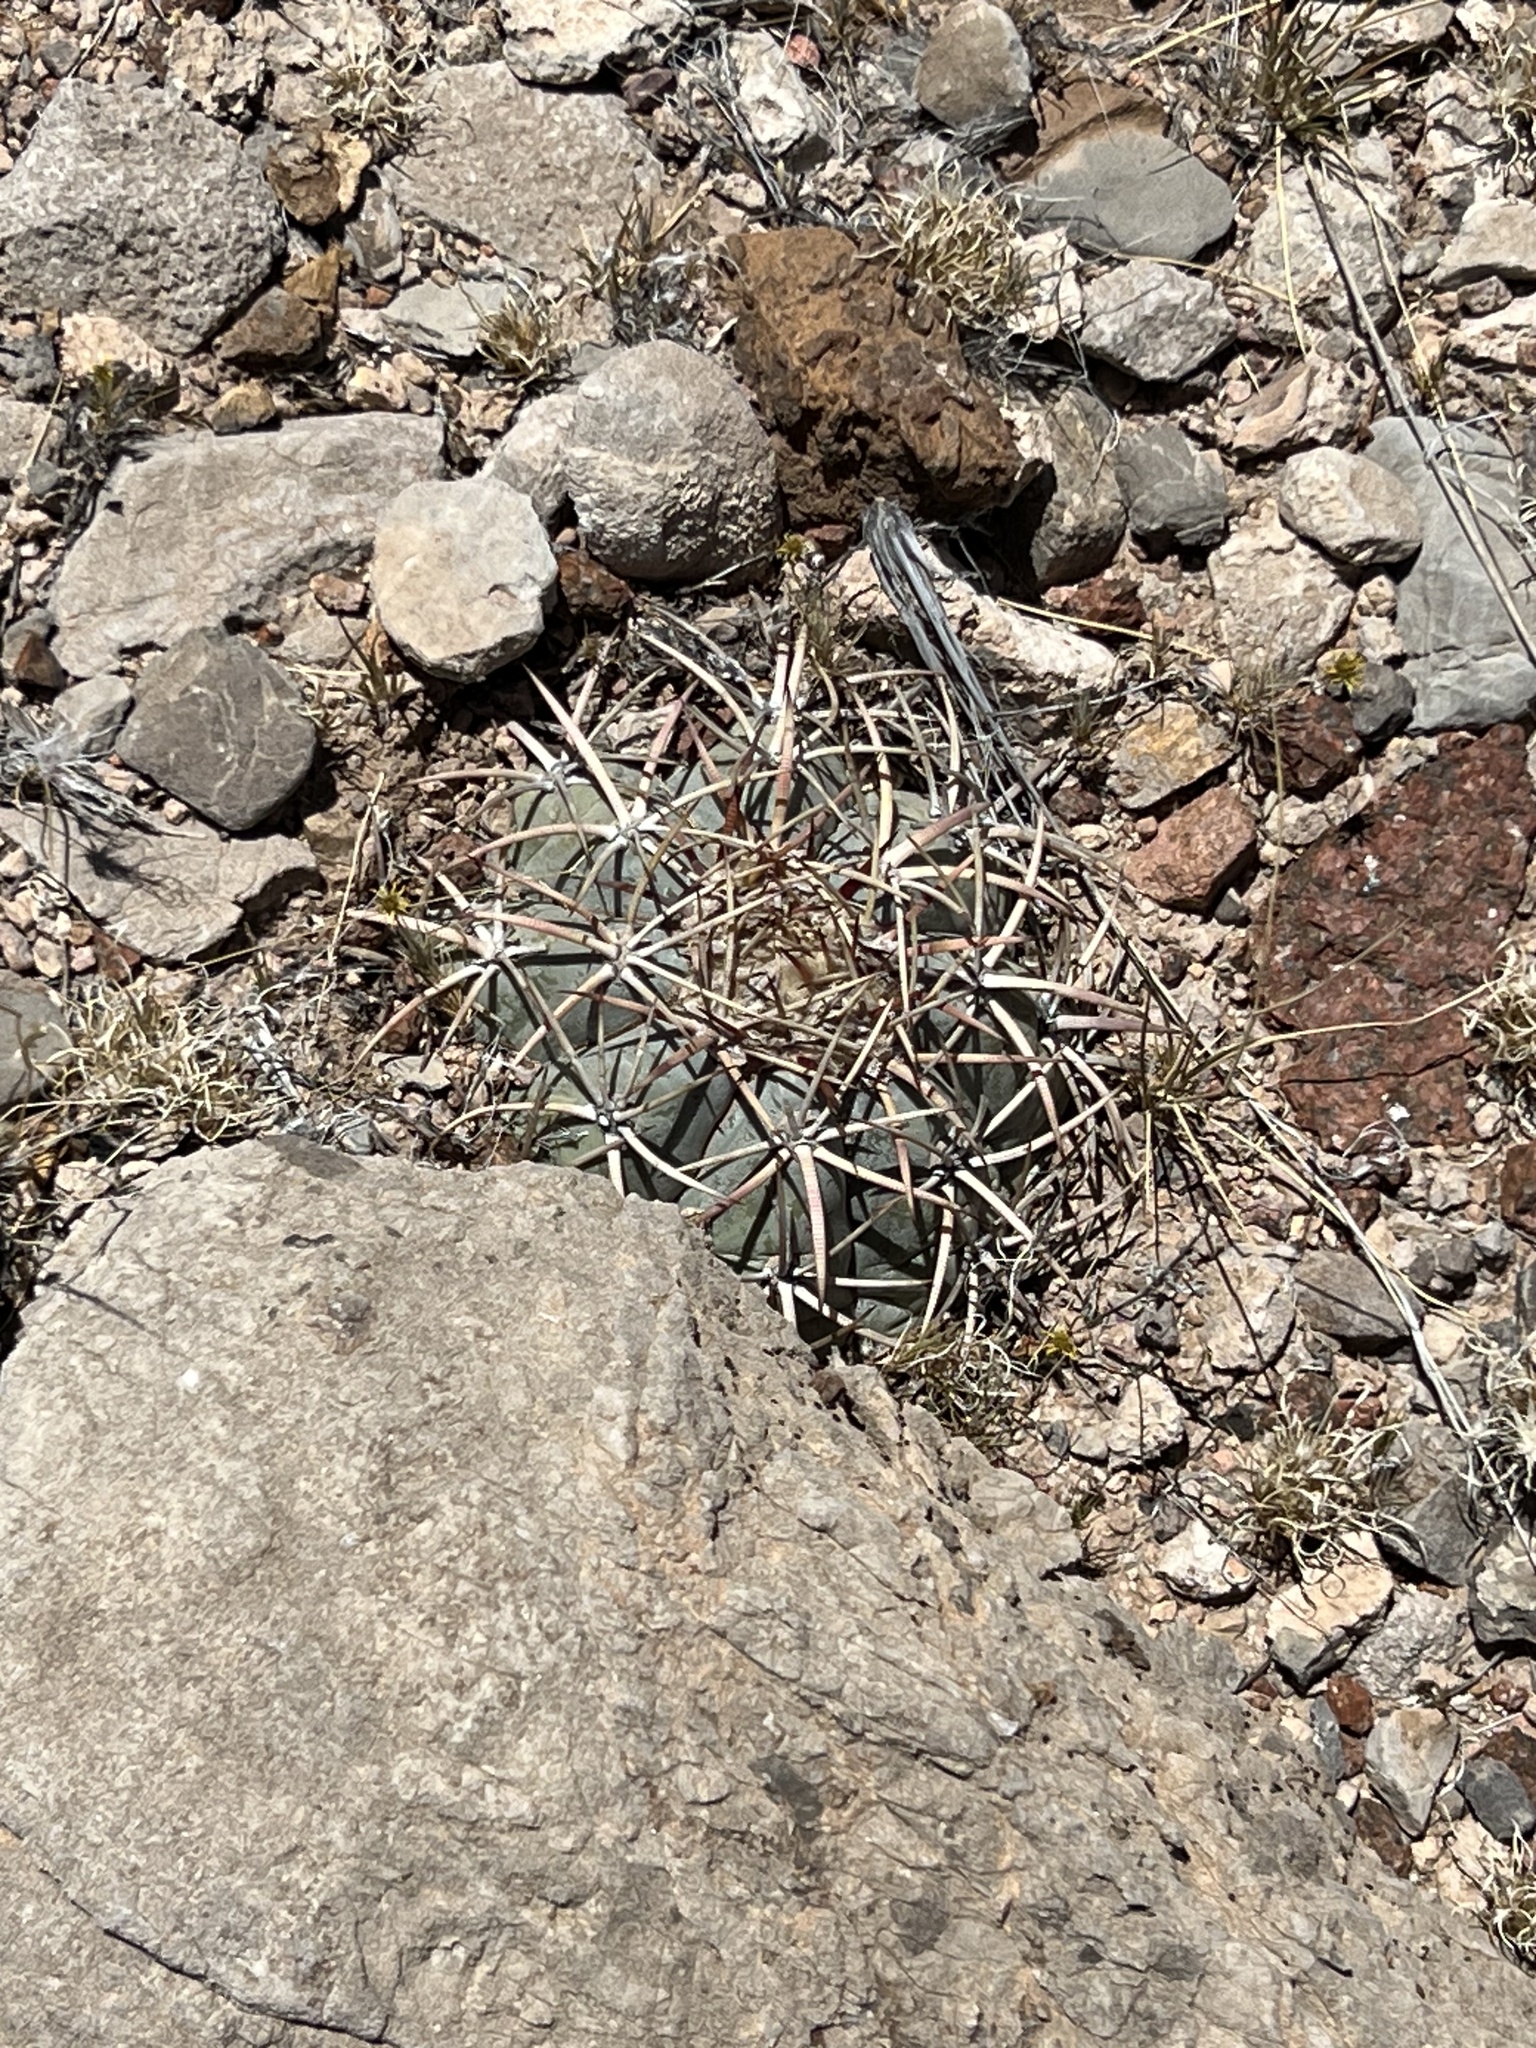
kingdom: Plantae
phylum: Tracheophyta
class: Magnoliopsida
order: Caryophyllales
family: Cactaceae
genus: Echinocactus
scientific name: Echinocactus horizonthalonius
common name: Devilshead
